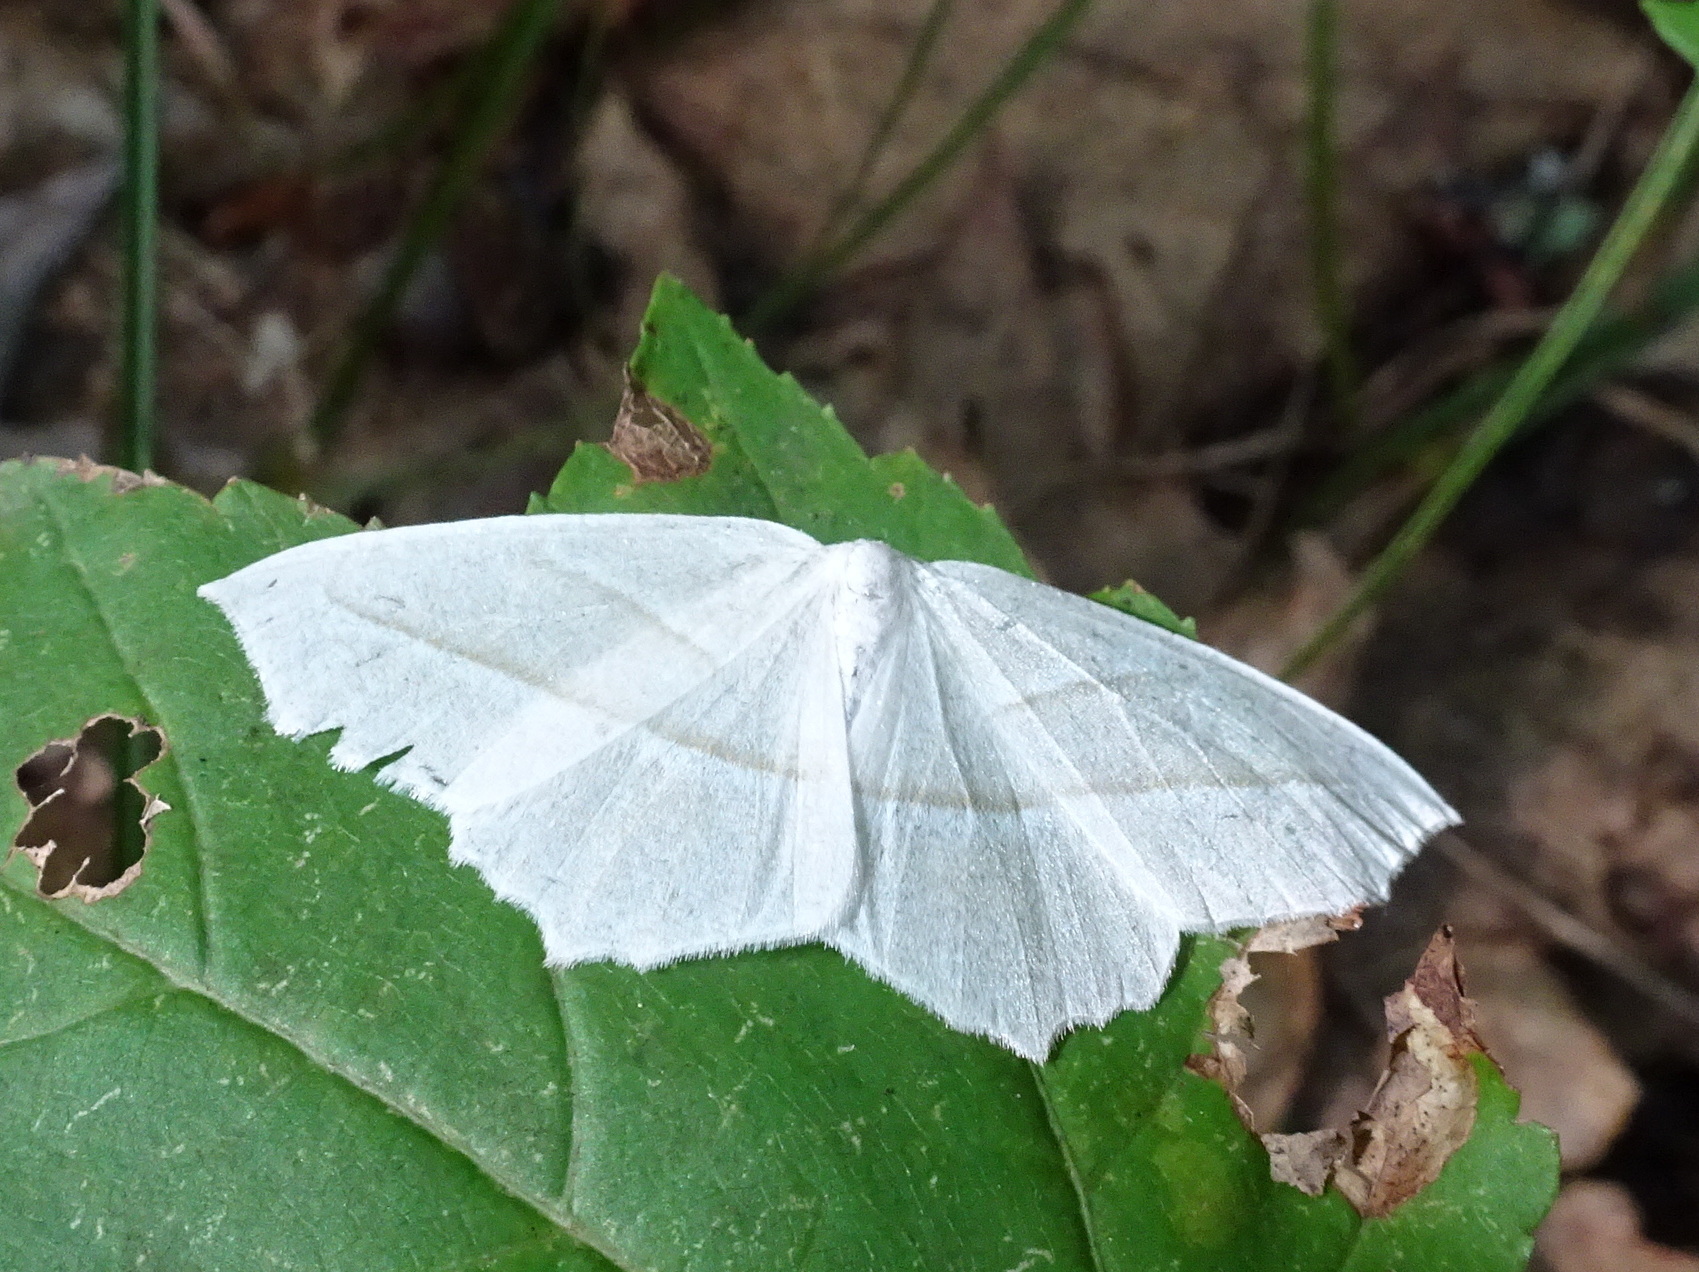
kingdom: Animalia
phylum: Arthropoda
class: Insecta
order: Lepidoptera
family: Geometridae
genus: Campaea
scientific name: Campaea perlata
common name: Fringed looper
